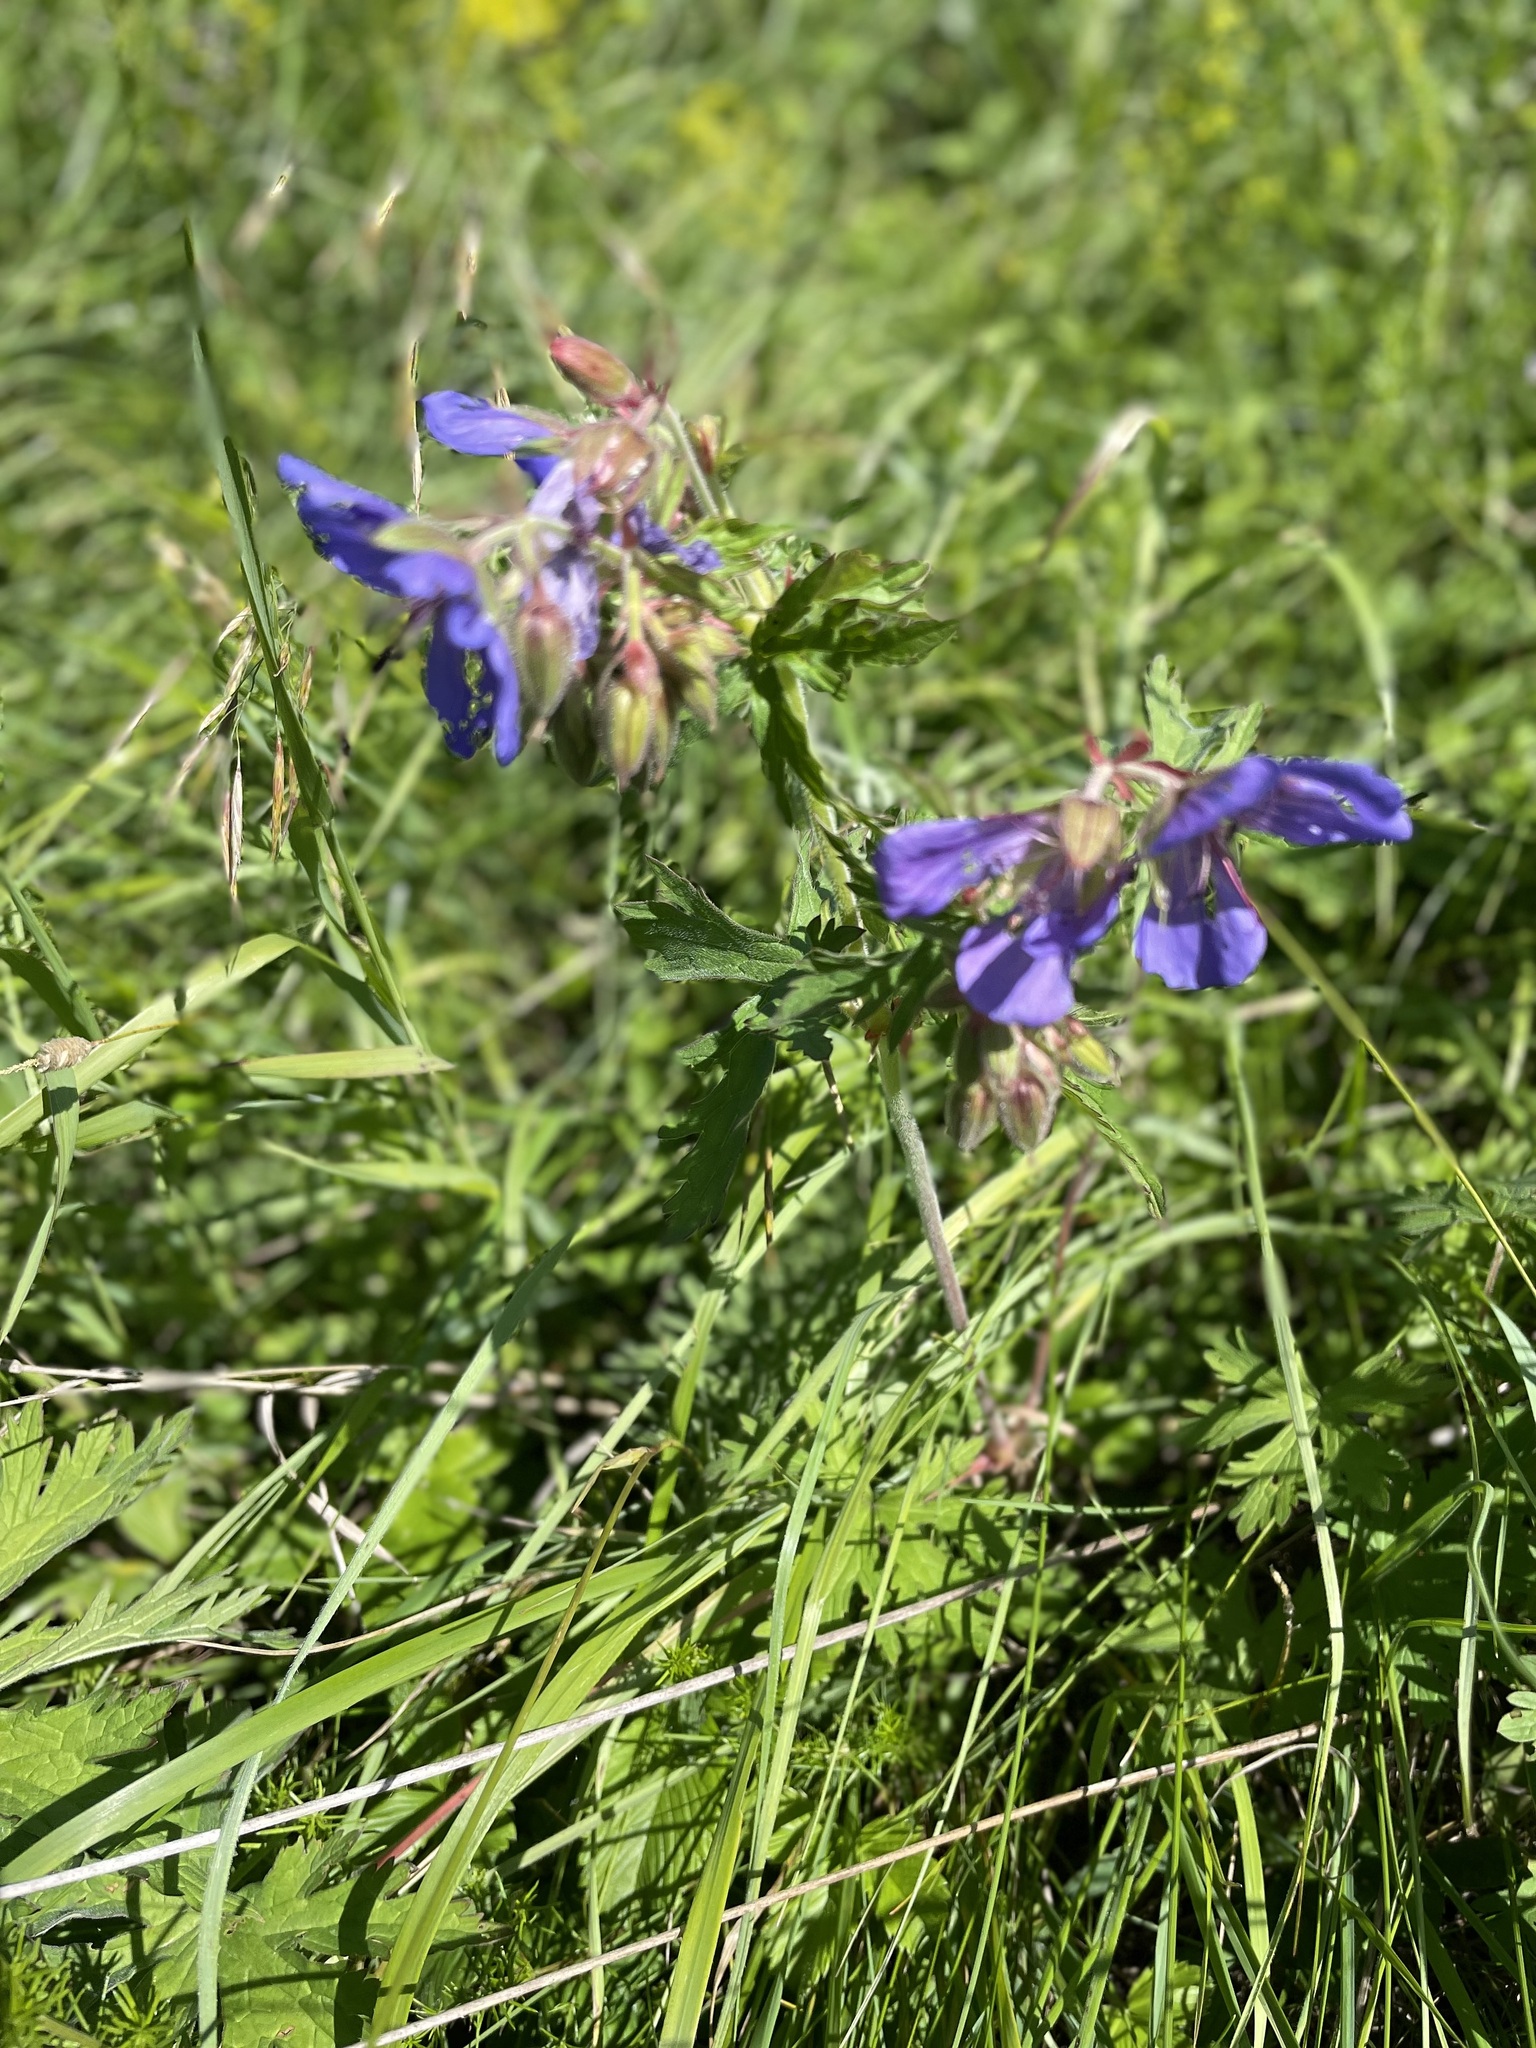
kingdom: Plantae
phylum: Tracheophyta
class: Magnoliopsida
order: Geraniales
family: Geraniaceae
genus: Geranium
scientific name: Geranium pratense
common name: Meadow crane's-bill
